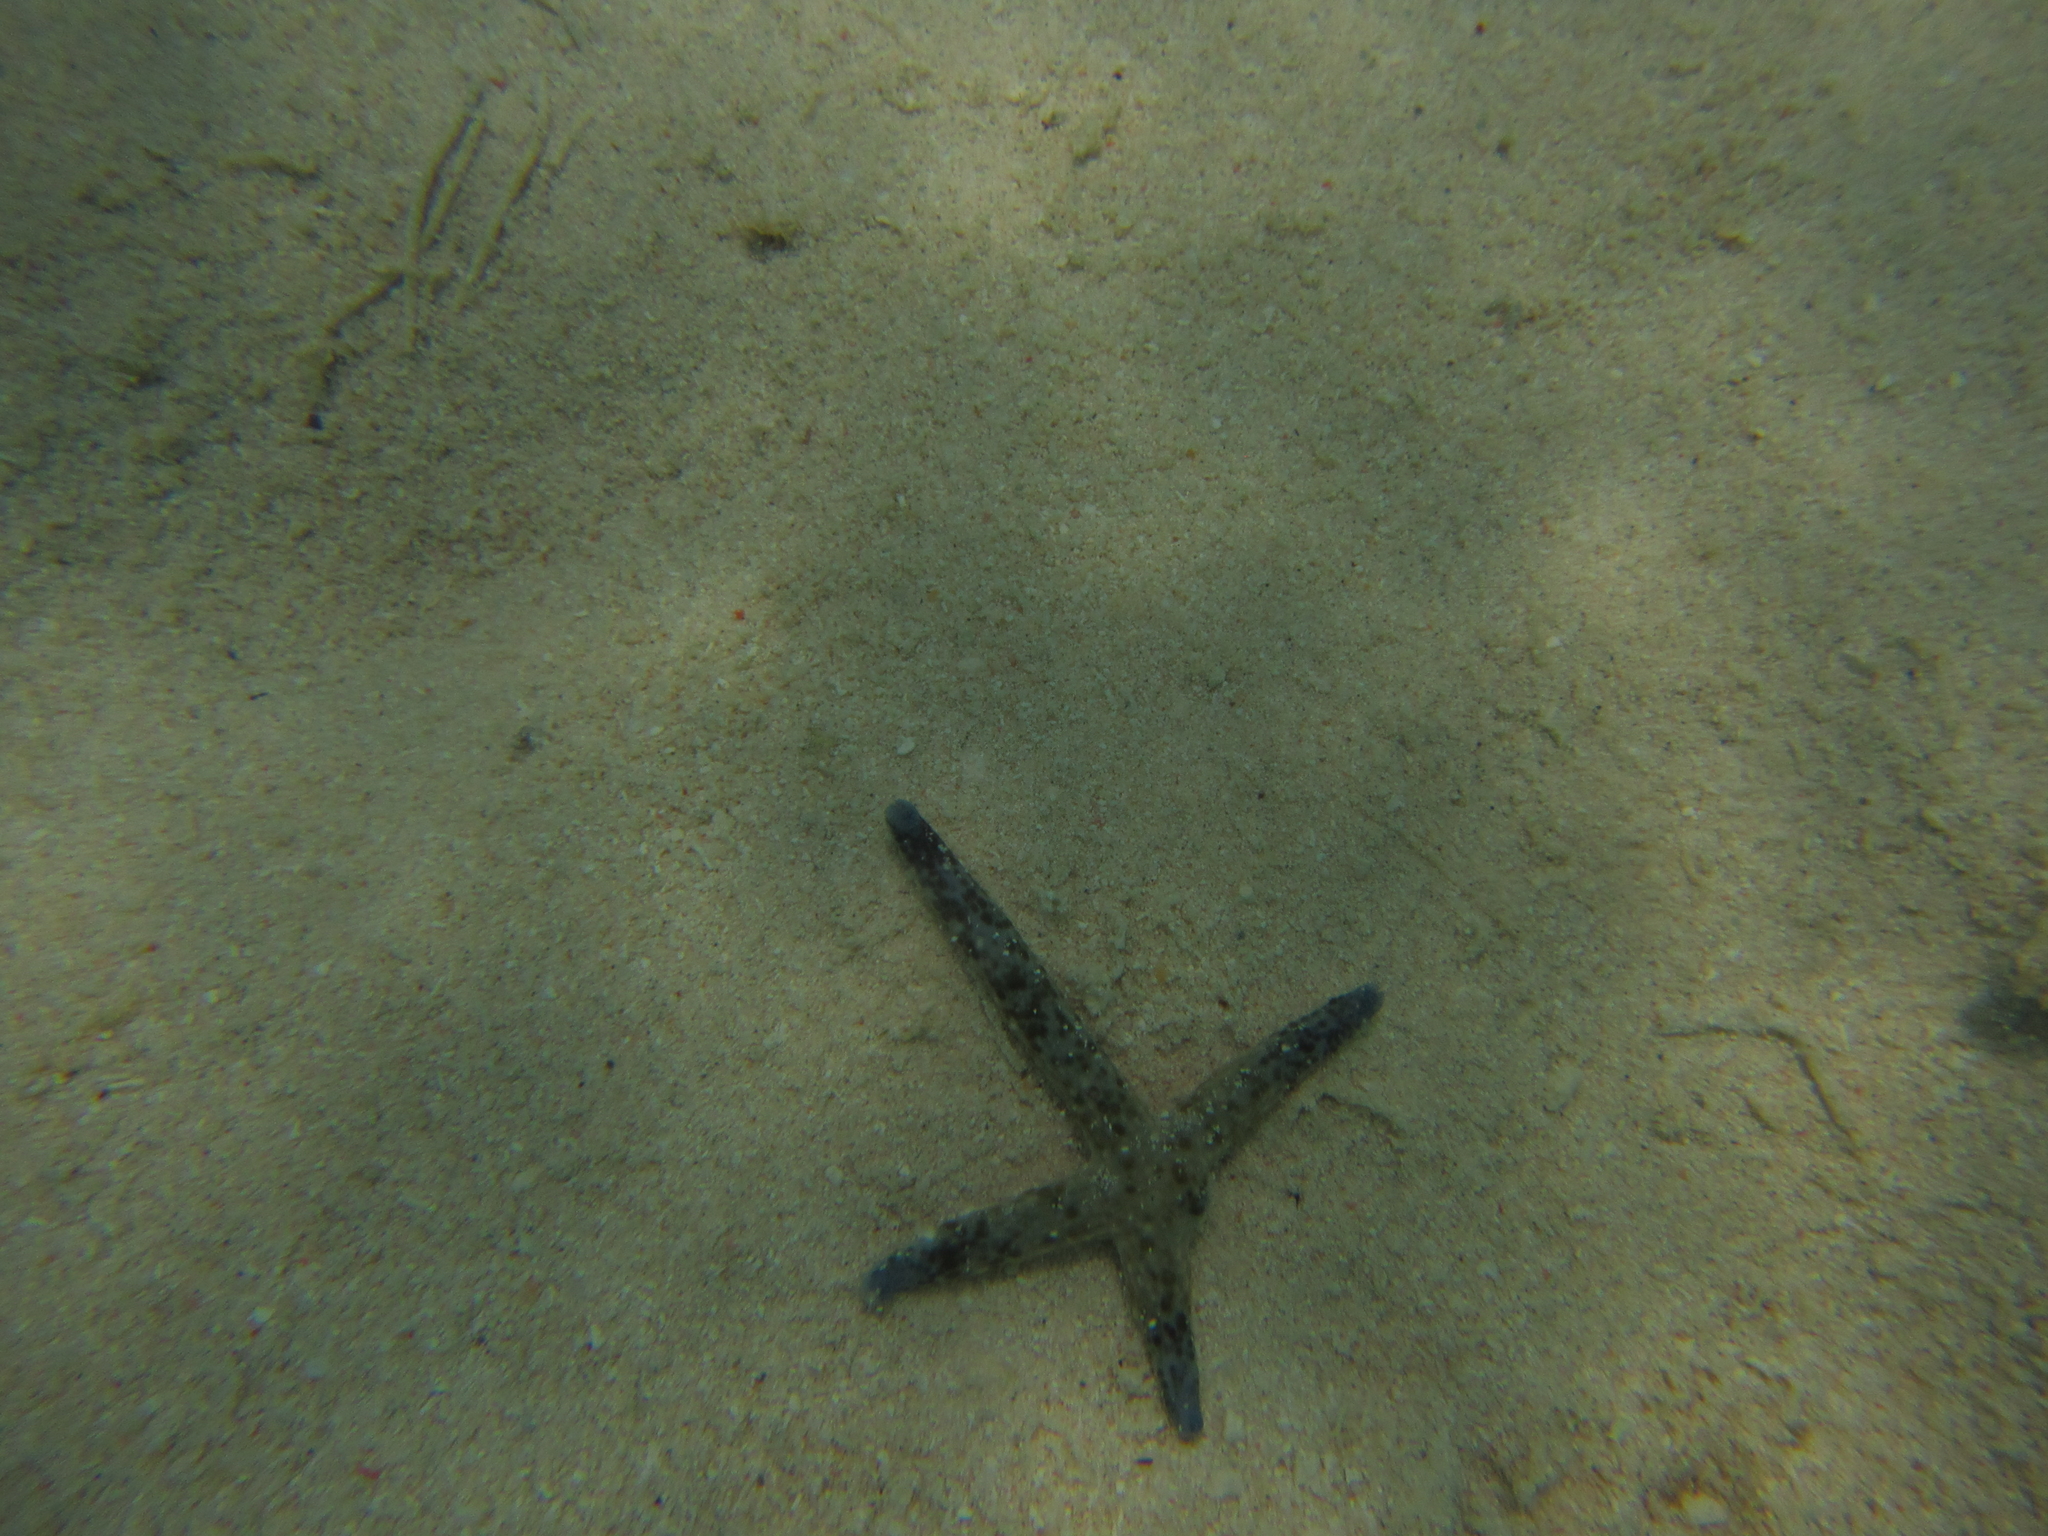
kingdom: Animalia
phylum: Echinodermata
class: Asteroidea
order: Valvatida
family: Ophidiasteridae
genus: Linckia
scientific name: Linckia multifora
